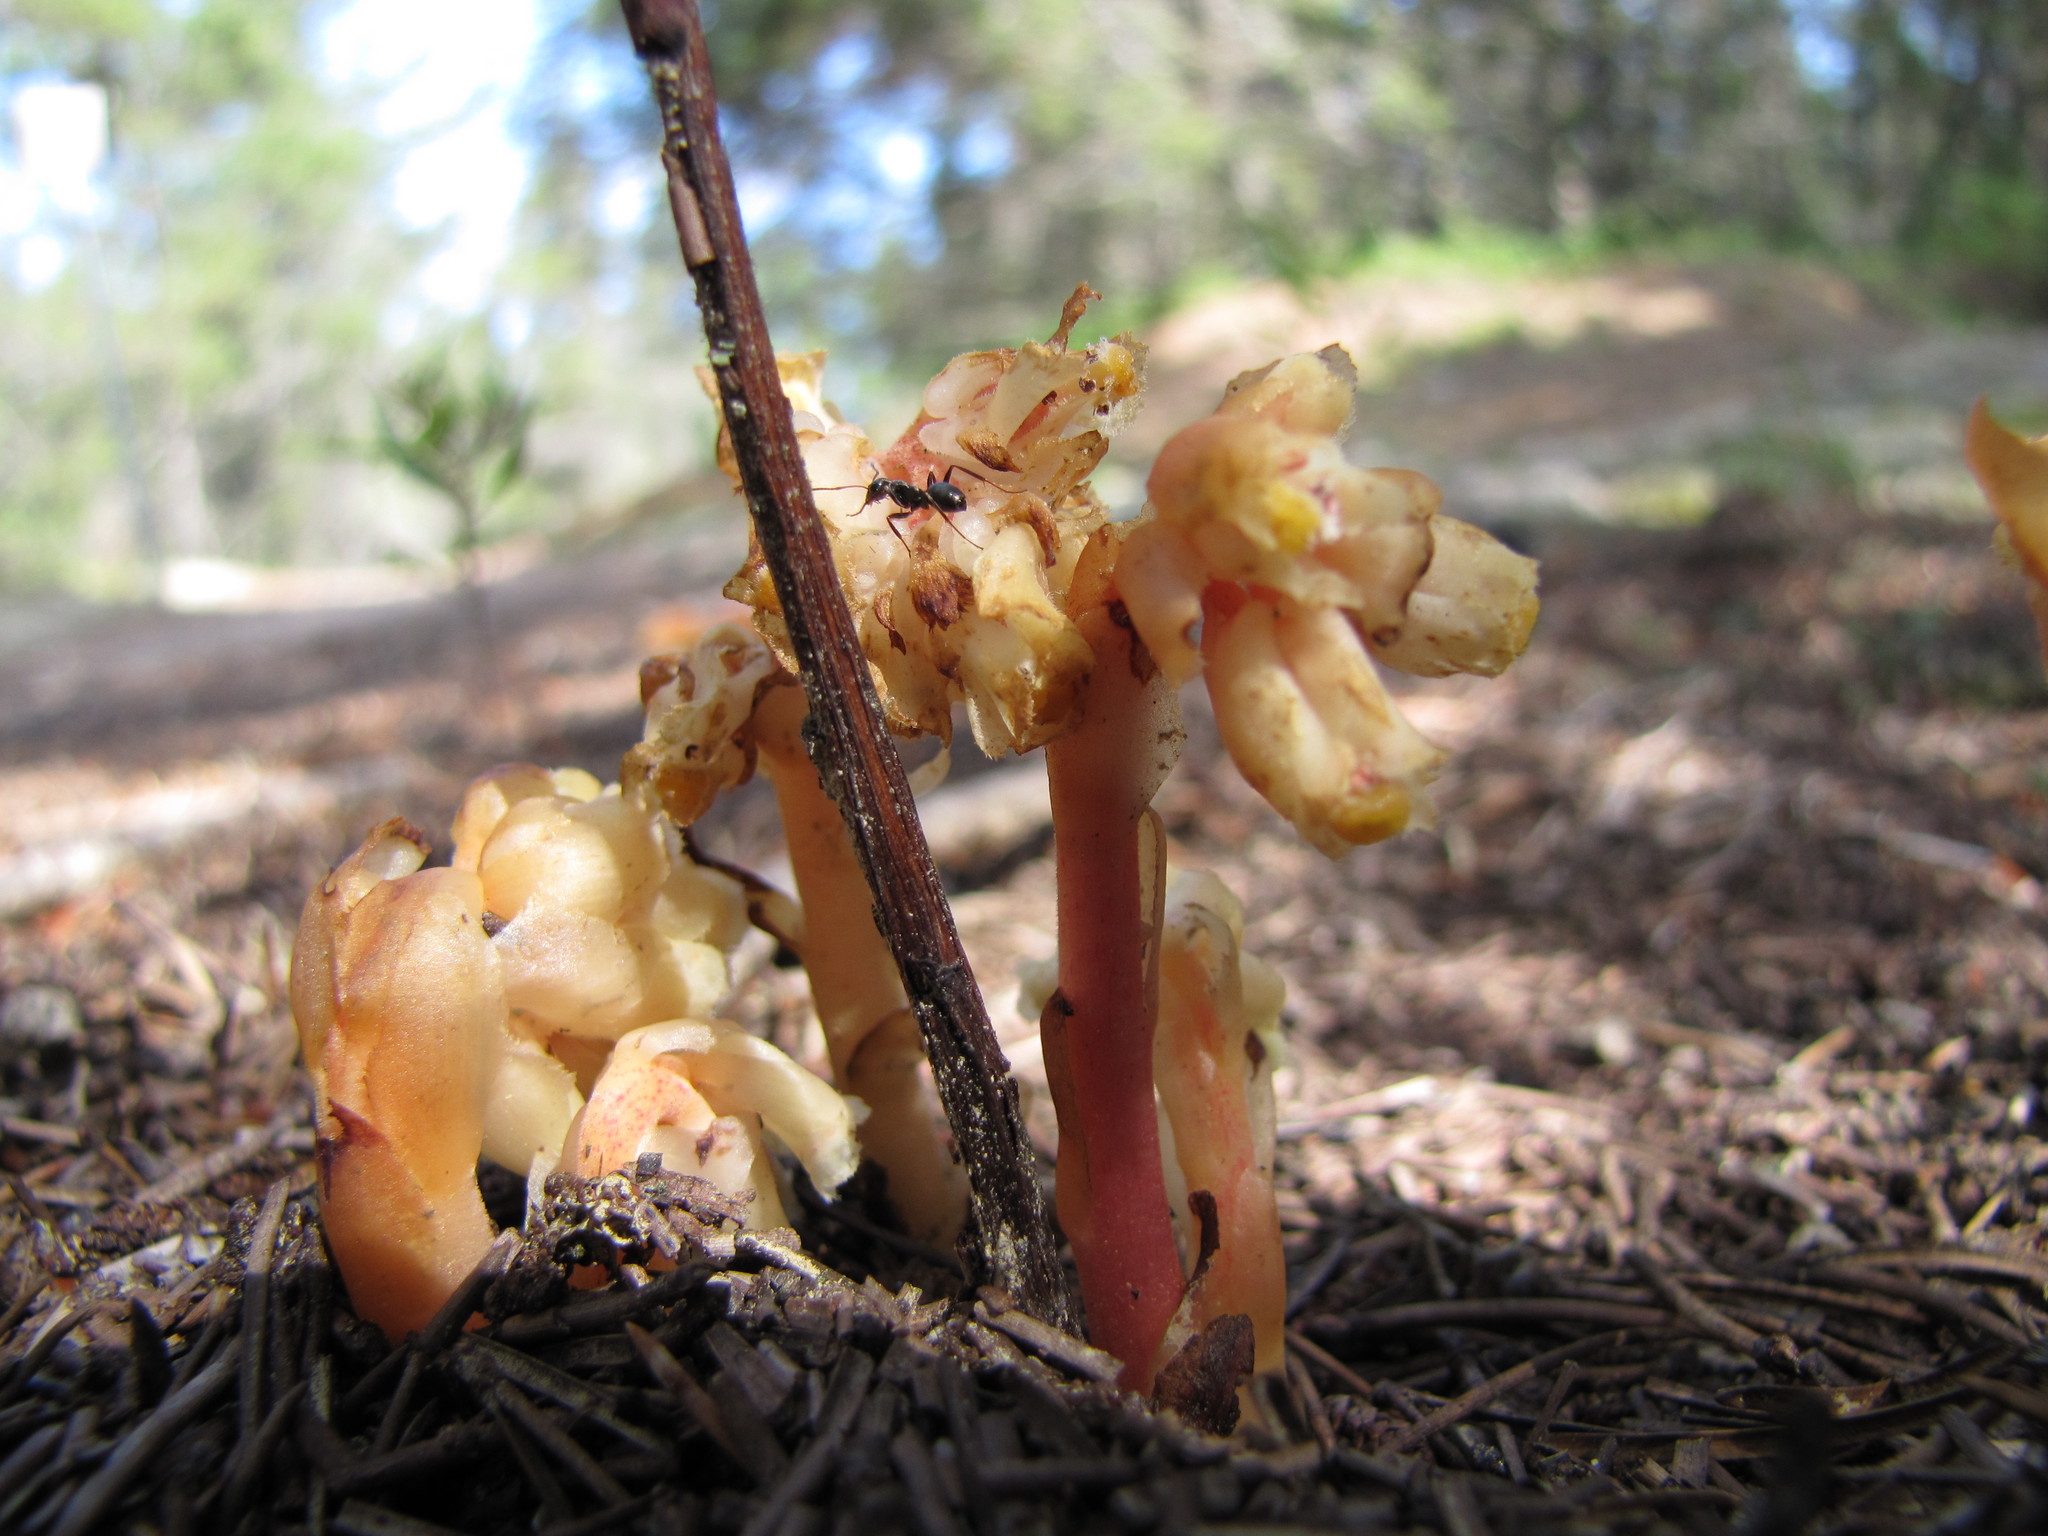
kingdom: Plantae
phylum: Tracheophyta
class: Magnoliopsida
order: Ericales
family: Ericaceae
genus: Hypopitys
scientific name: Hypopitys monotropa
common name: Yellow bird's-nest
